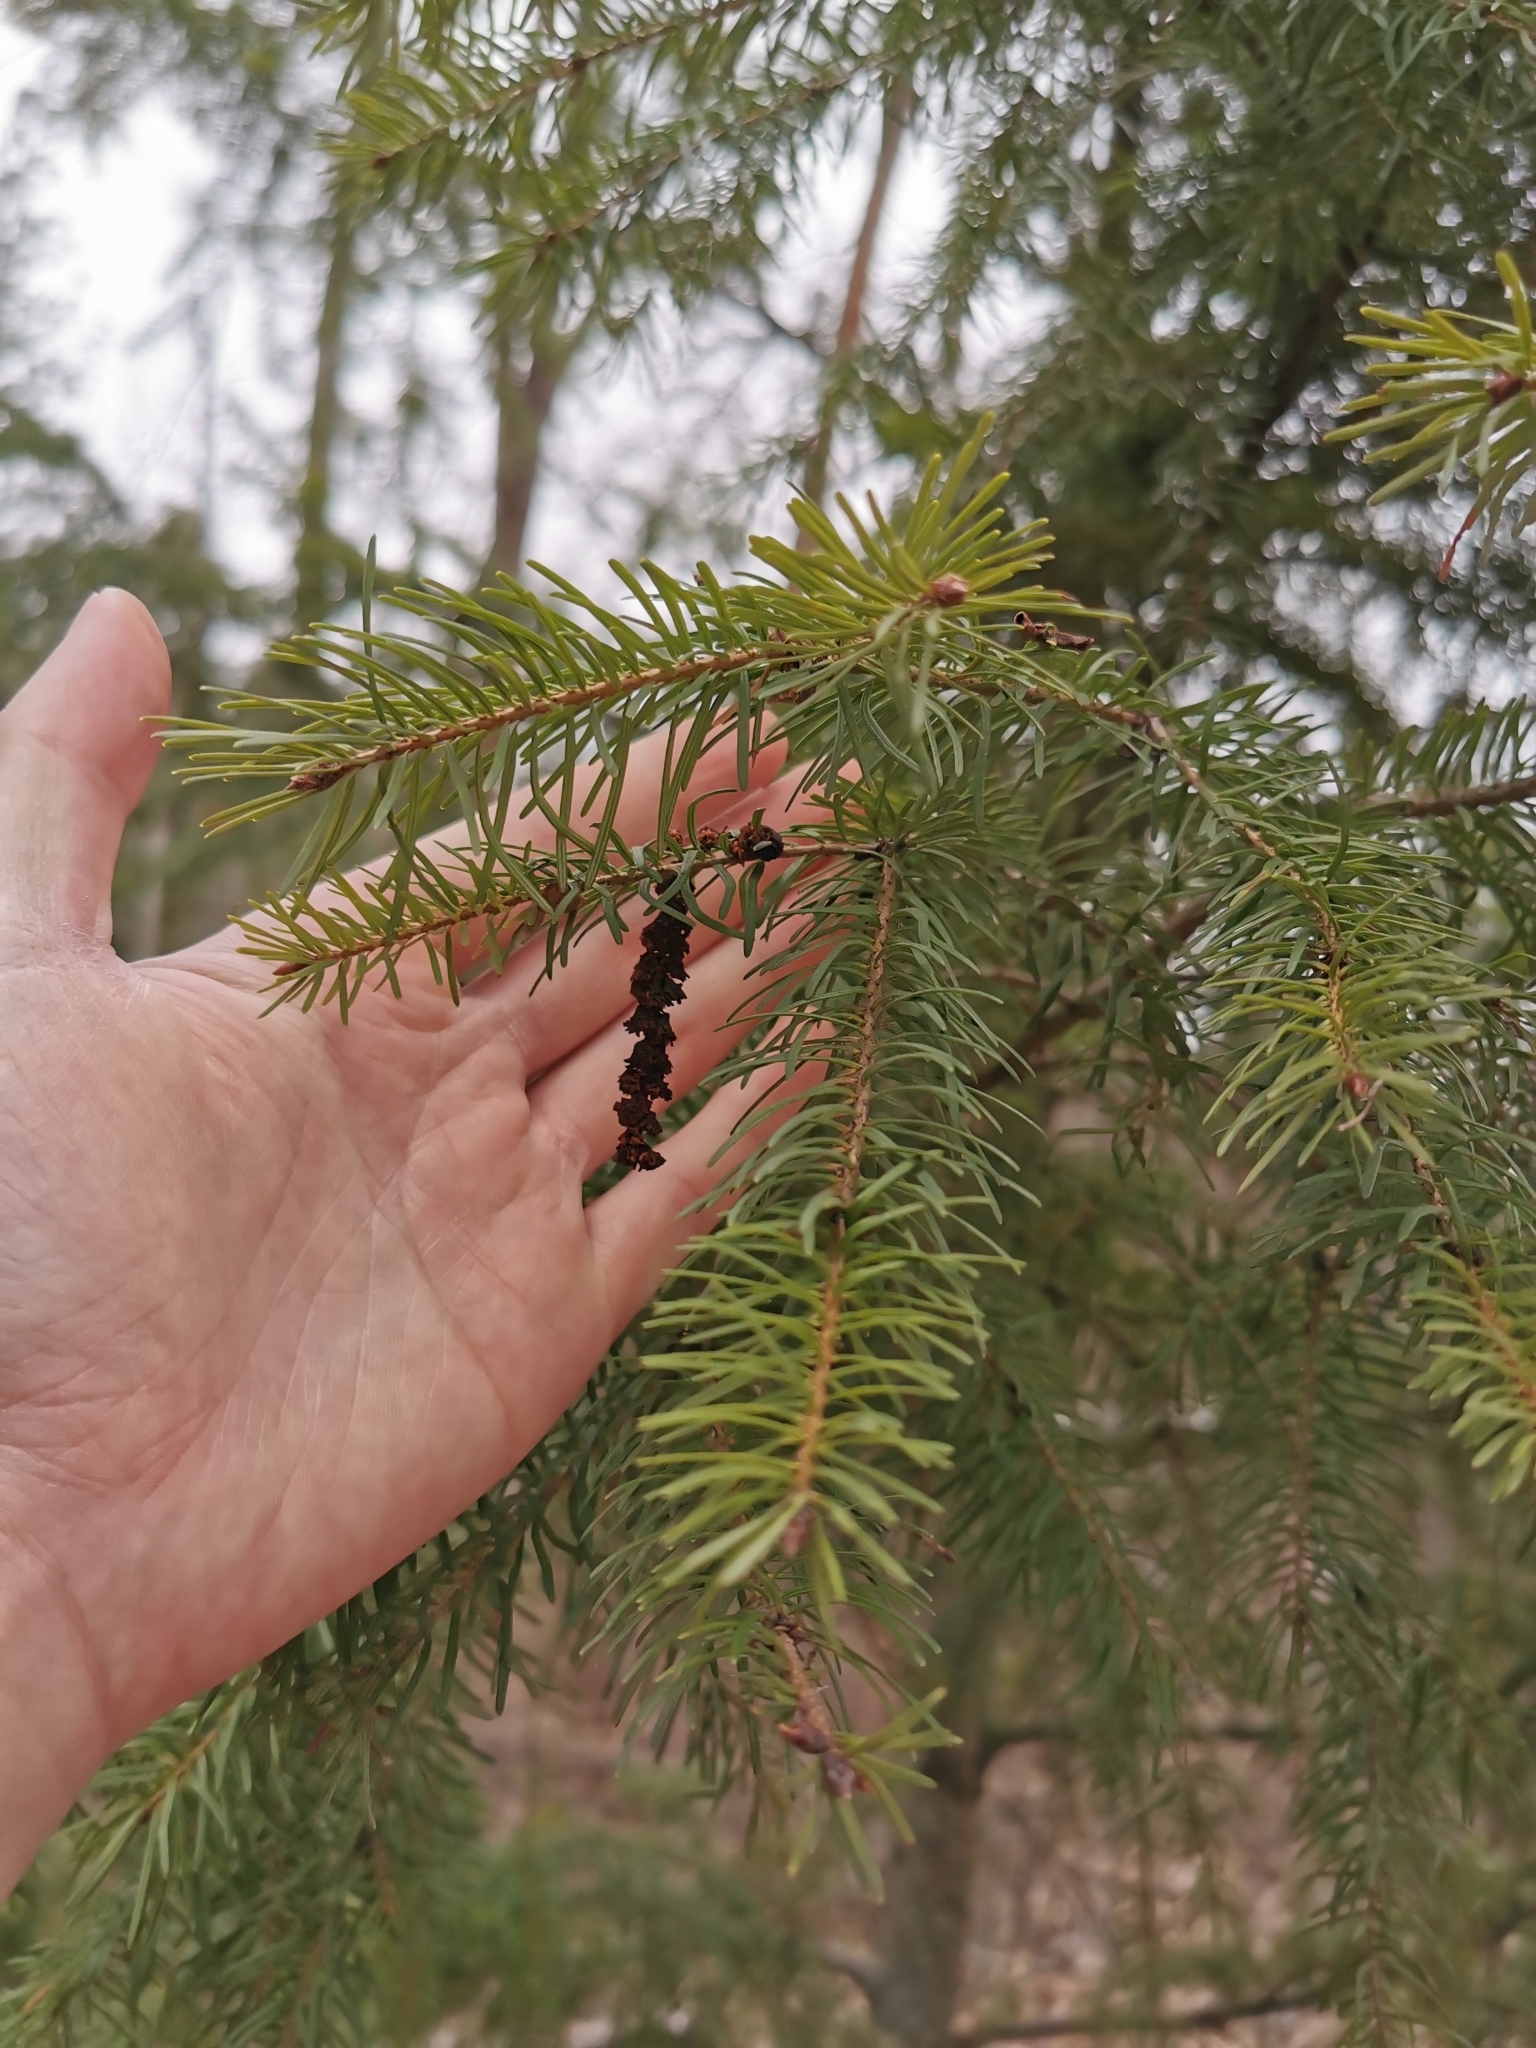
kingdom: Plantae
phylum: Tracheophyta
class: Pinopsida
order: Pinales
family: Pinaceae
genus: Pseudotsuga
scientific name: Pseudotsuga menziesii
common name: Douglas fir
